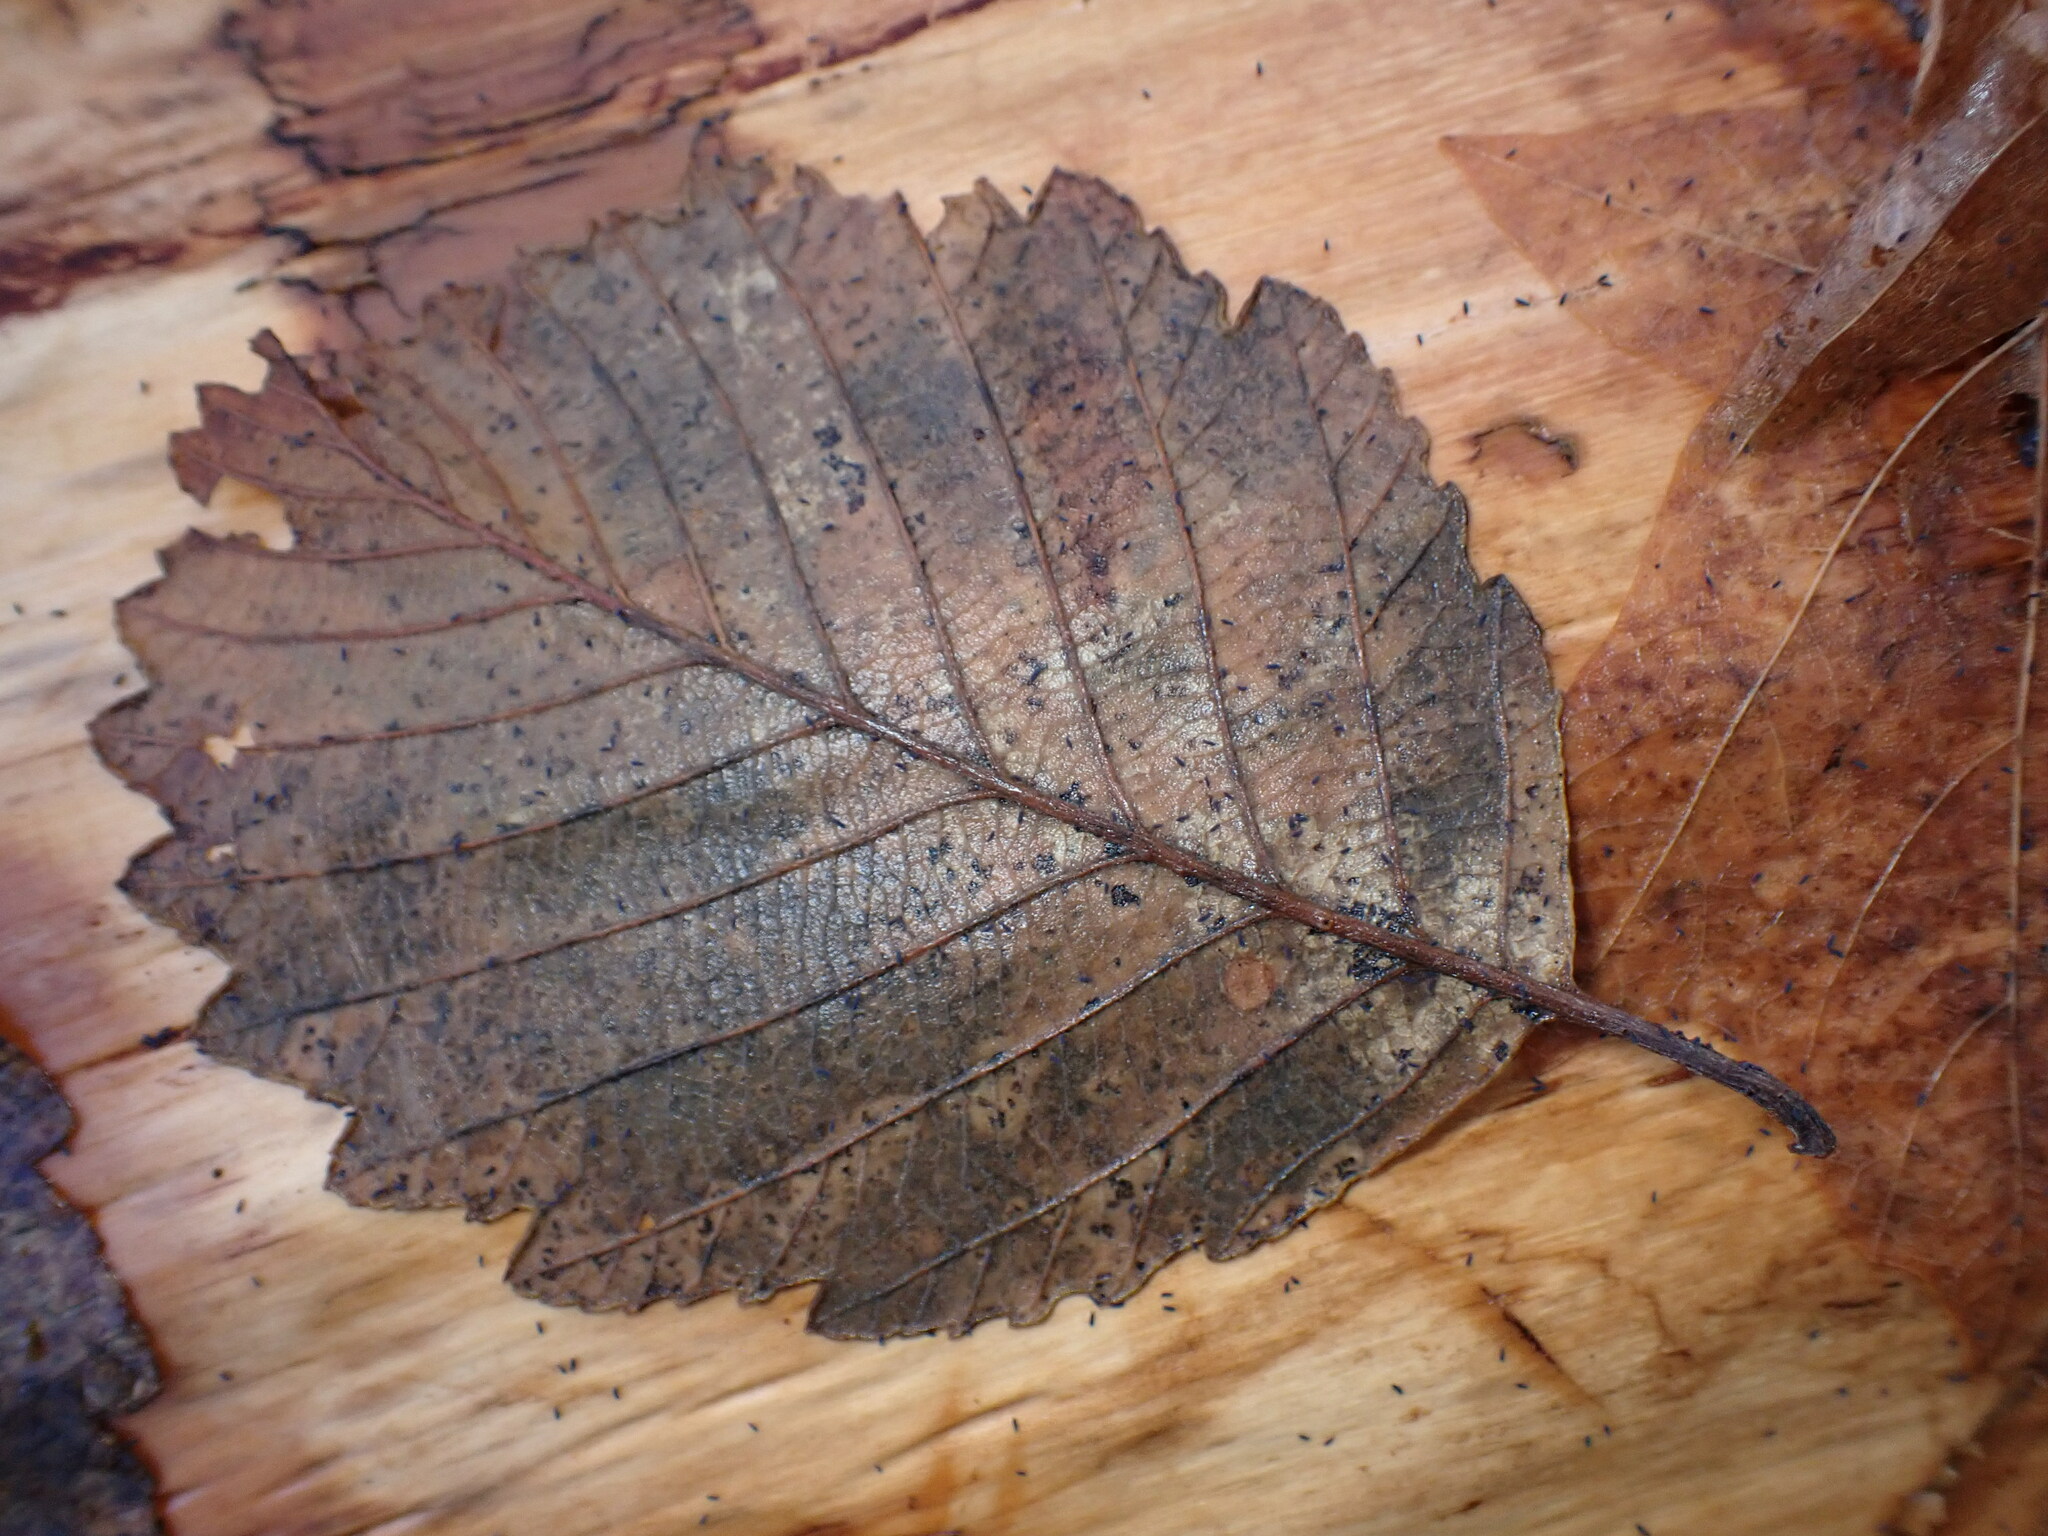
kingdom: Plantae
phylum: Tracheophyta
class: Magnoliopsida
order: Fagales
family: Betulaceae
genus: Alnus
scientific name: Alnus rubra
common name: Red alder
